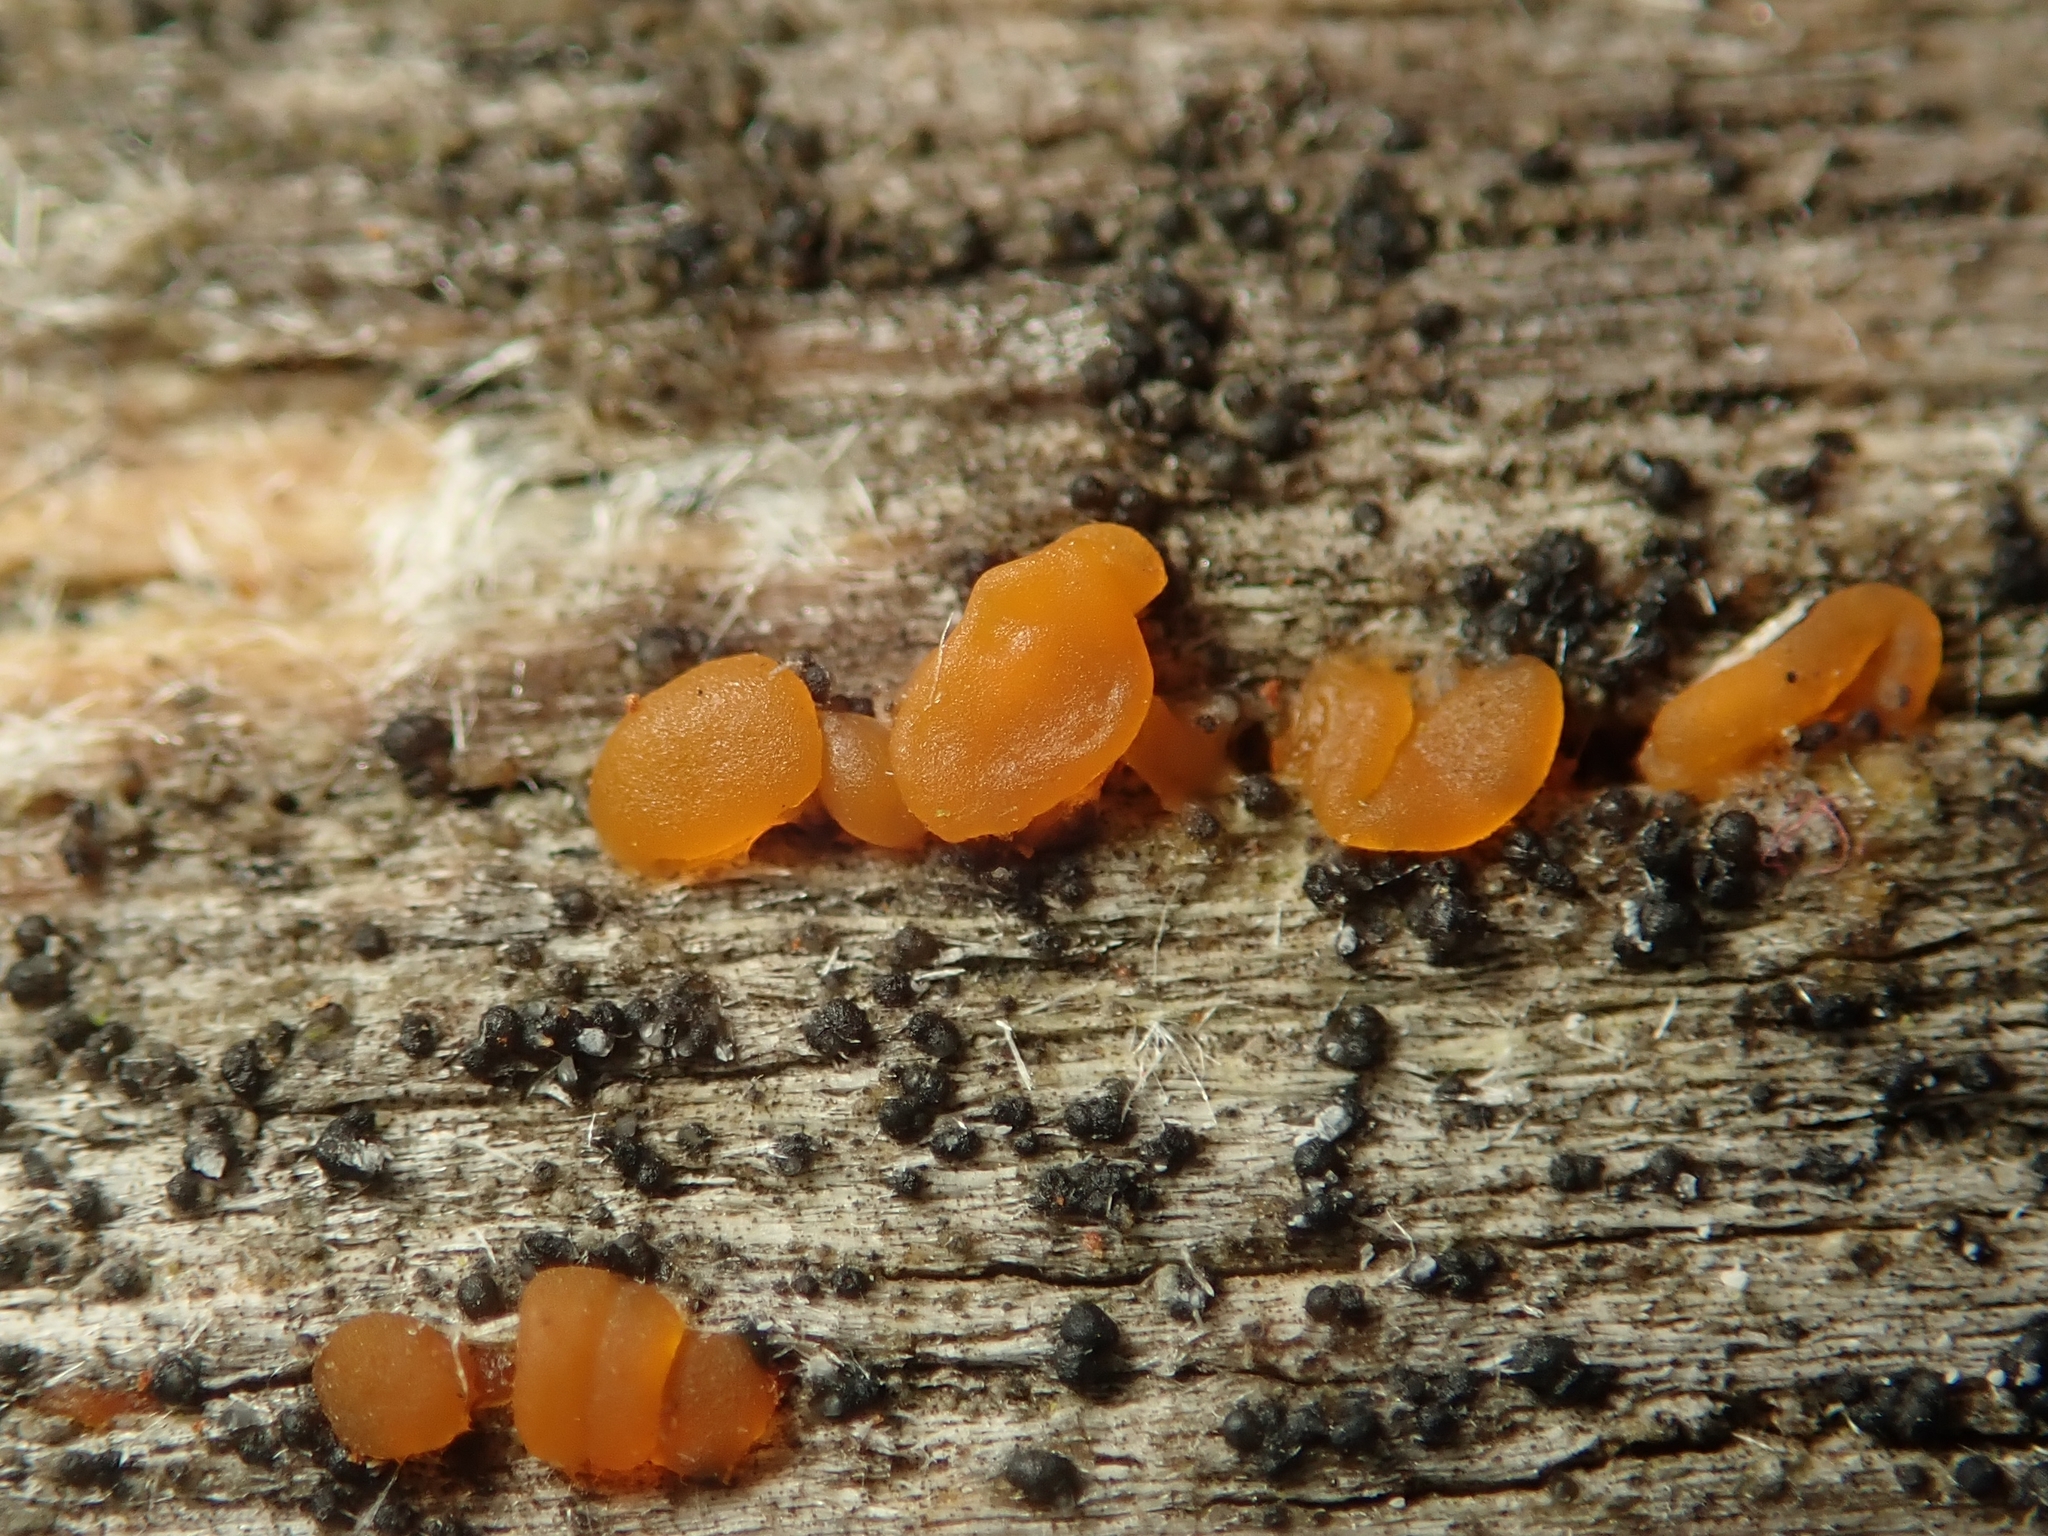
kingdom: Fungi
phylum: Basidiomycota
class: Dacrymycetes
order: Dacrymycetales
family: Dacrymycetaceae
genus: Dacrymyces
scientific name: Dacrymyces stillatus
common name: Common jelly spot
